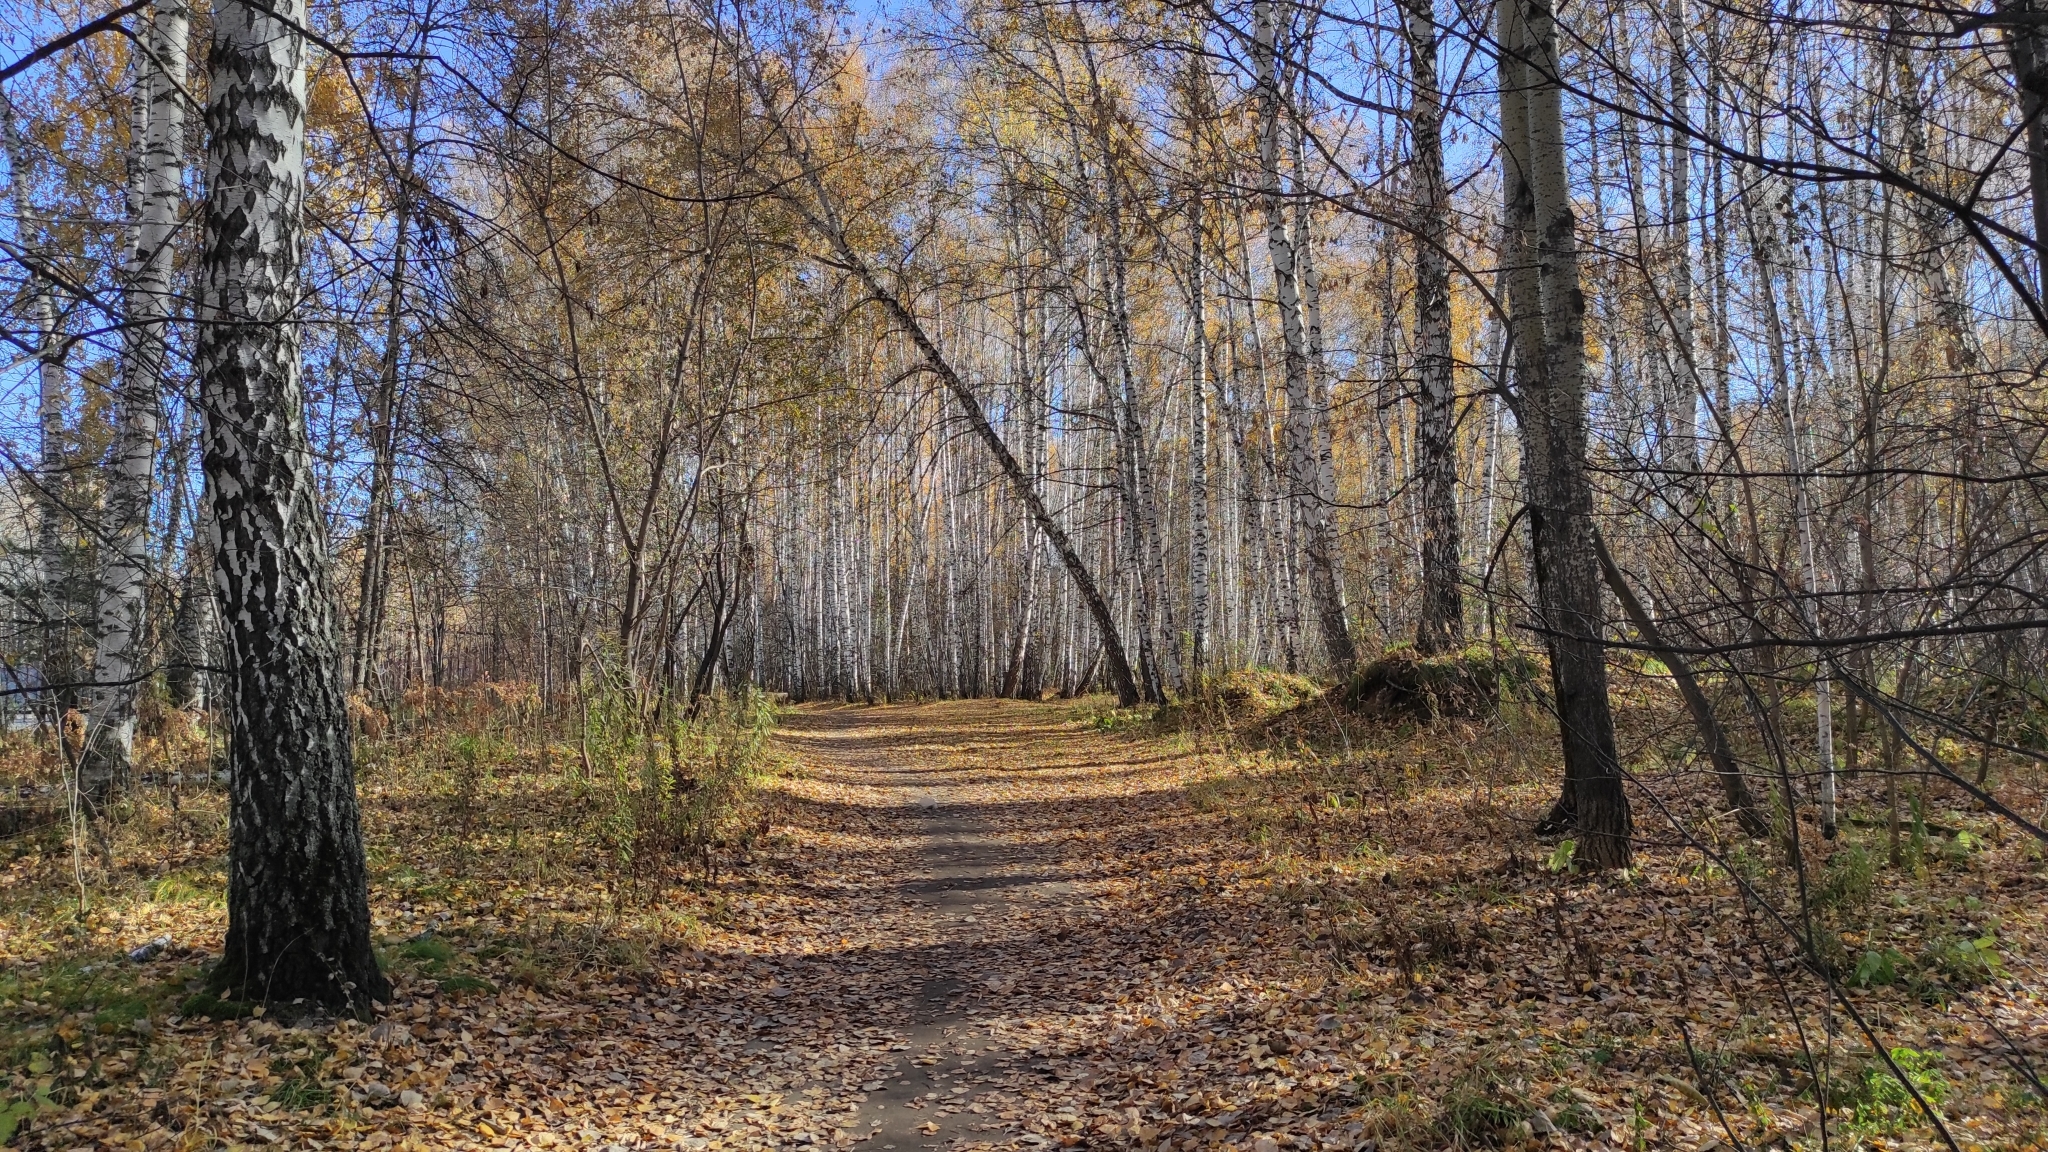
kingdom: Plantae
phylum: Tracheophyta
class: Magnoliopsida
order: Fagales
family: Betulaceae
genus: Betula
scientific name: Betula pendula
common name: Silver birch
